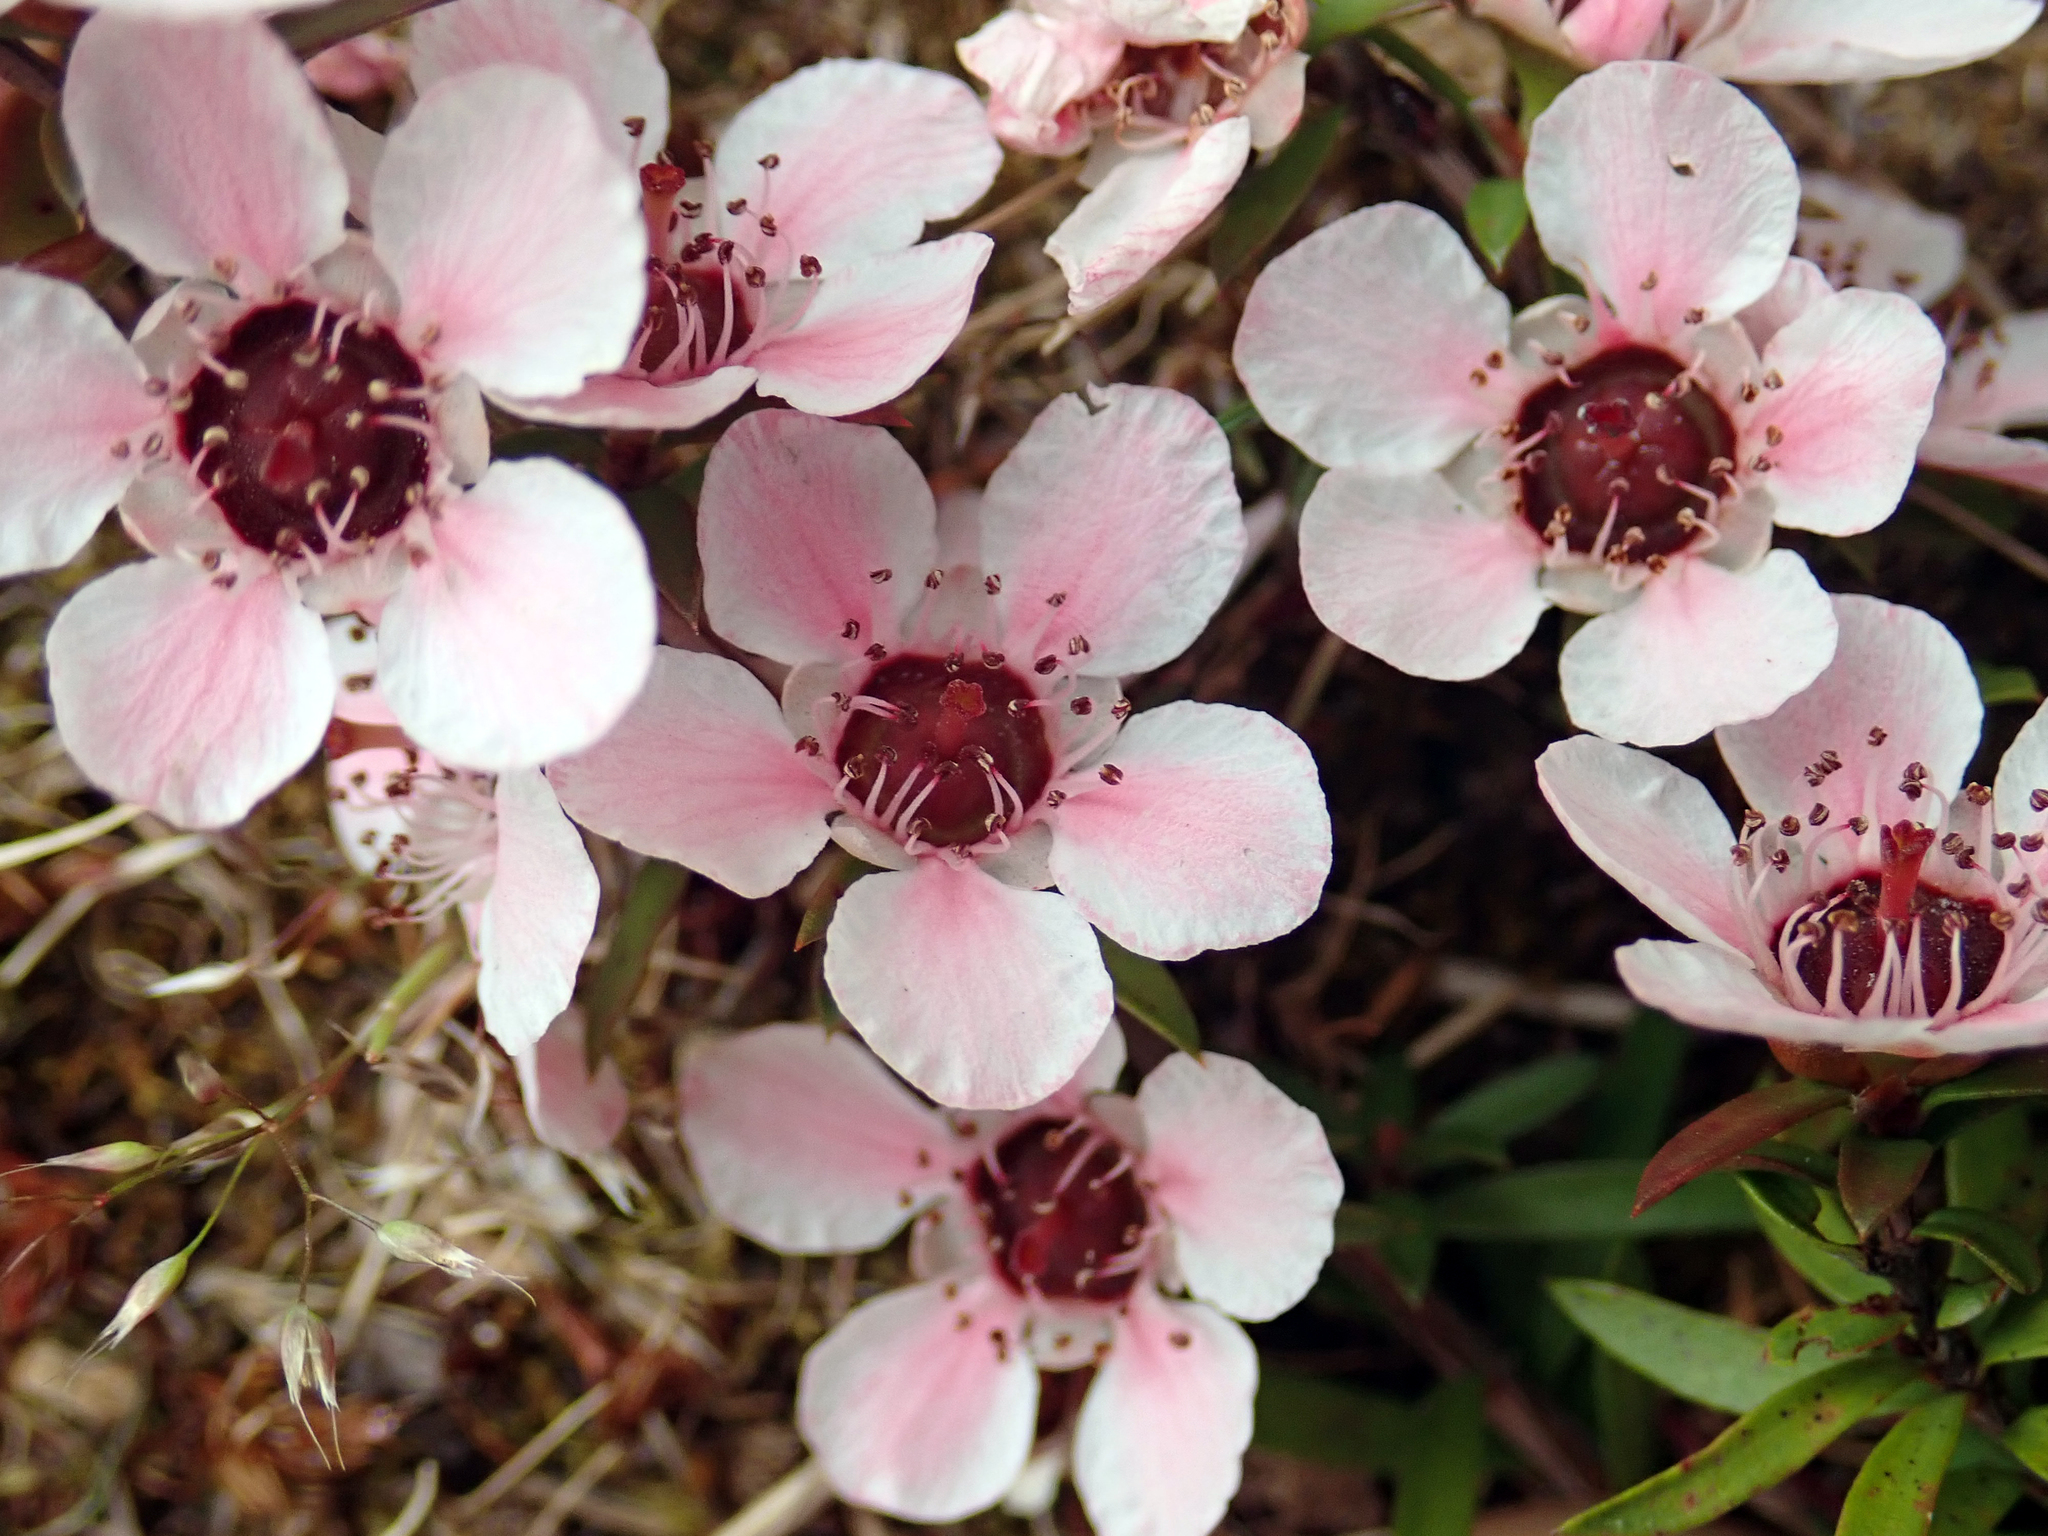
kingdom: Plantae
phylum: Tracheophyta
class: Magnoliopsida
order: Myrtales
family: Myrtaceae
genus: Leptospermum
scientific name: Leptospermum scoparium
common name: Broom tea-tree
